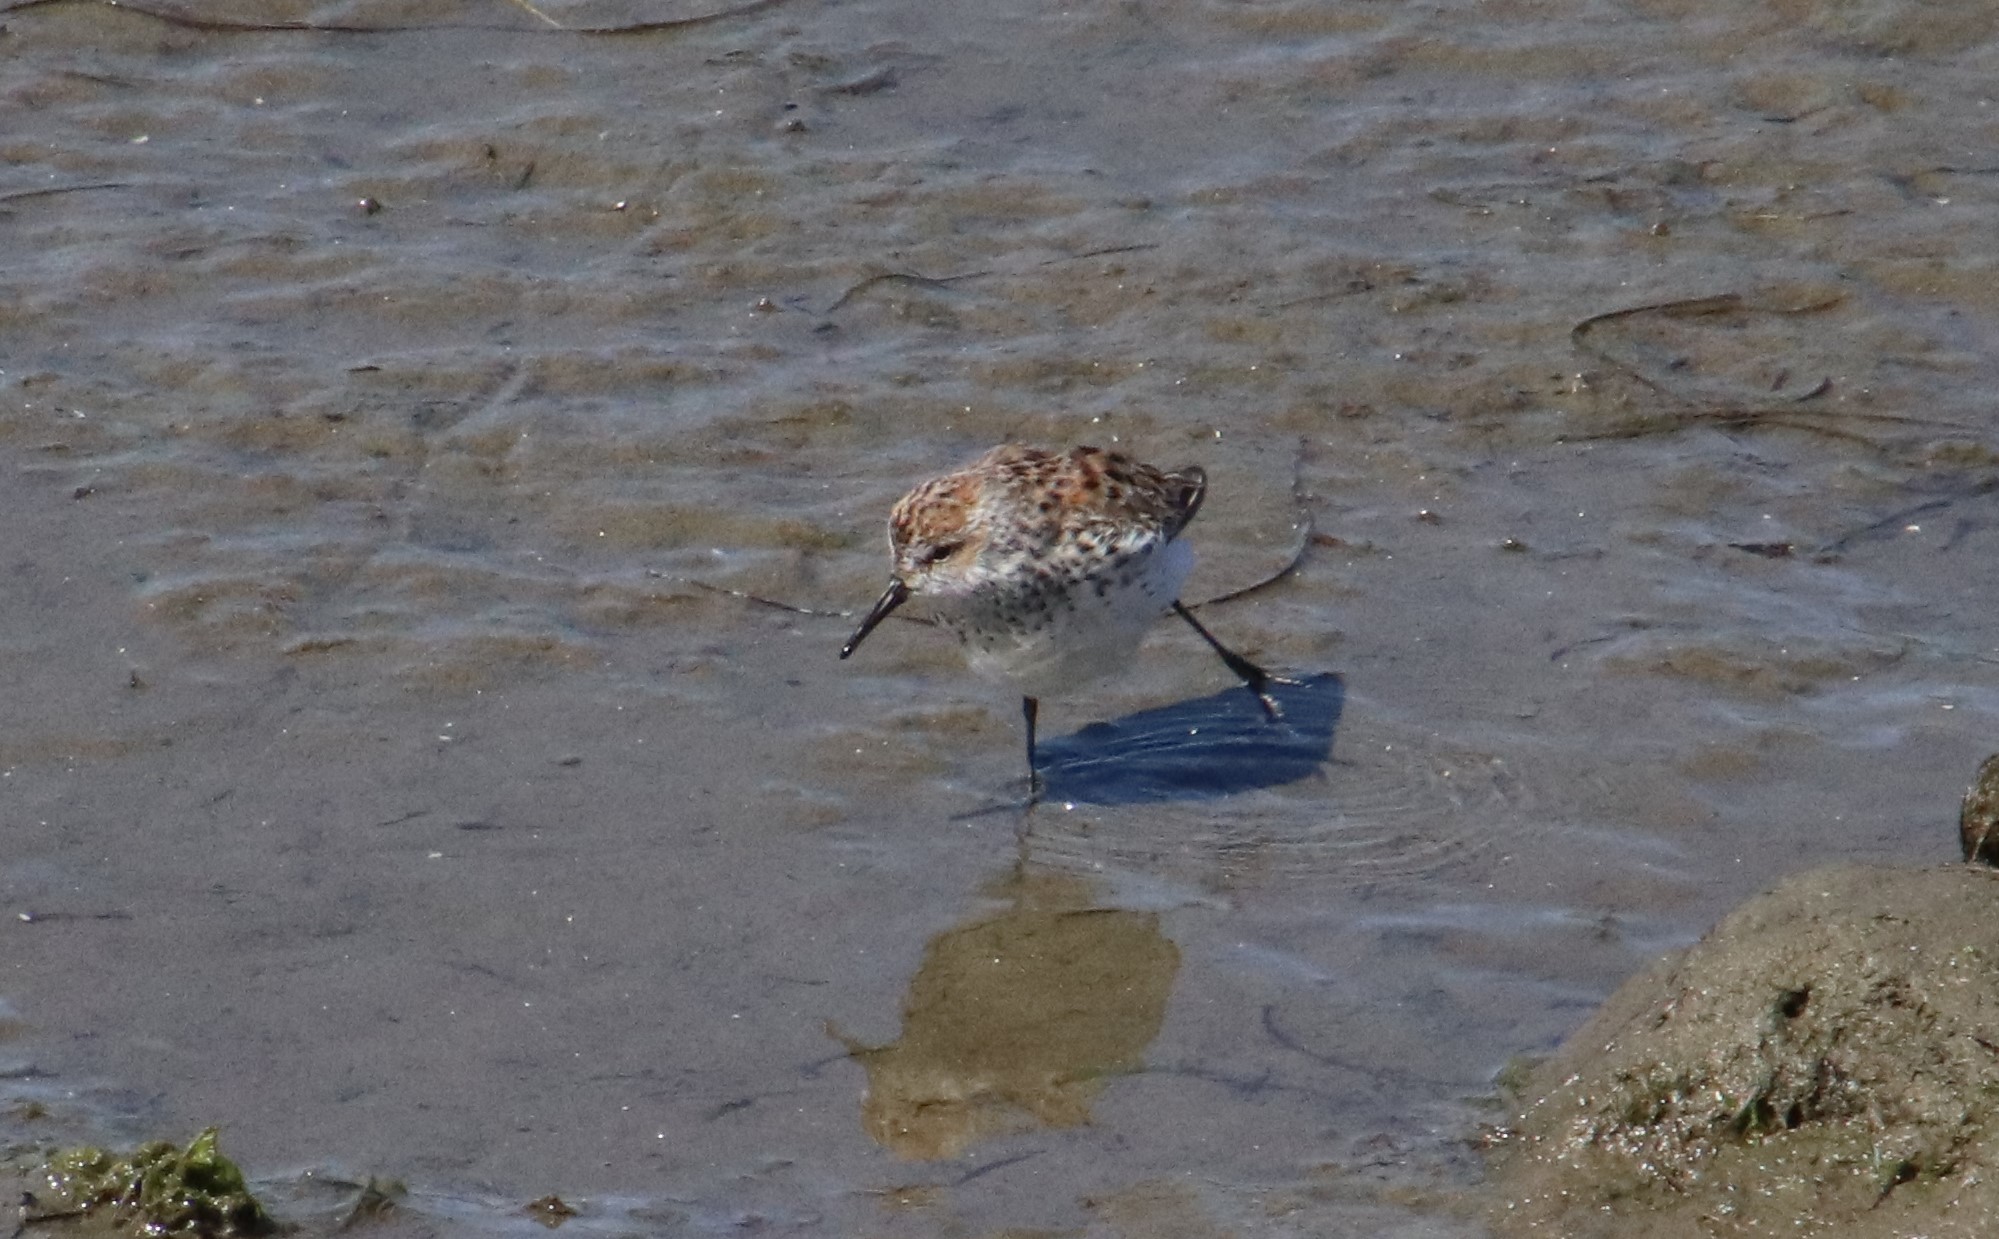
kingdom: Animalia
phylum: Chordata
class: Aves
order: Charadriiformes
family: Scolopacidae
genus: Calidris
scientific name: Calidris mauri
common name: Western sandpiper
